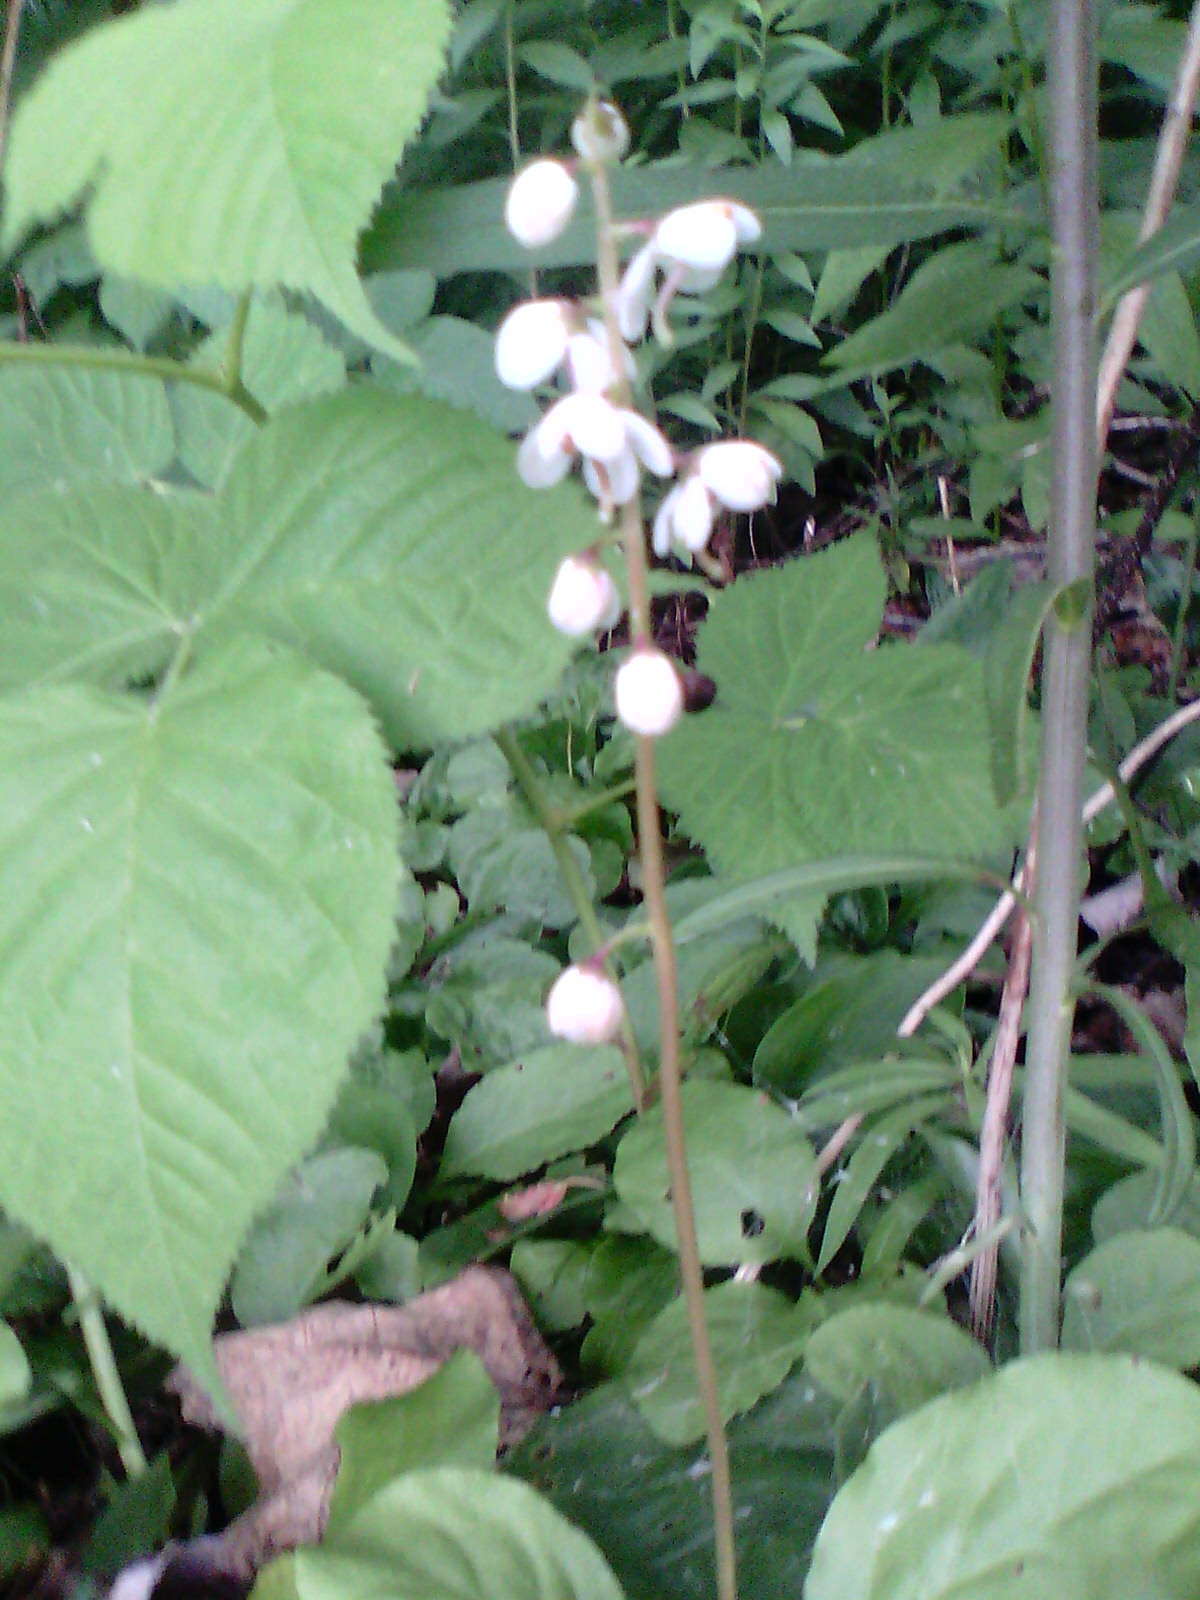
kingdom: Plantae
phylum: Tracheophyta
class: Magnoliopsida
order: Ericales
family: Ericaceae
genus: Pyrola
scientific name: Pyrola elliptica
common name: Shinleaf
